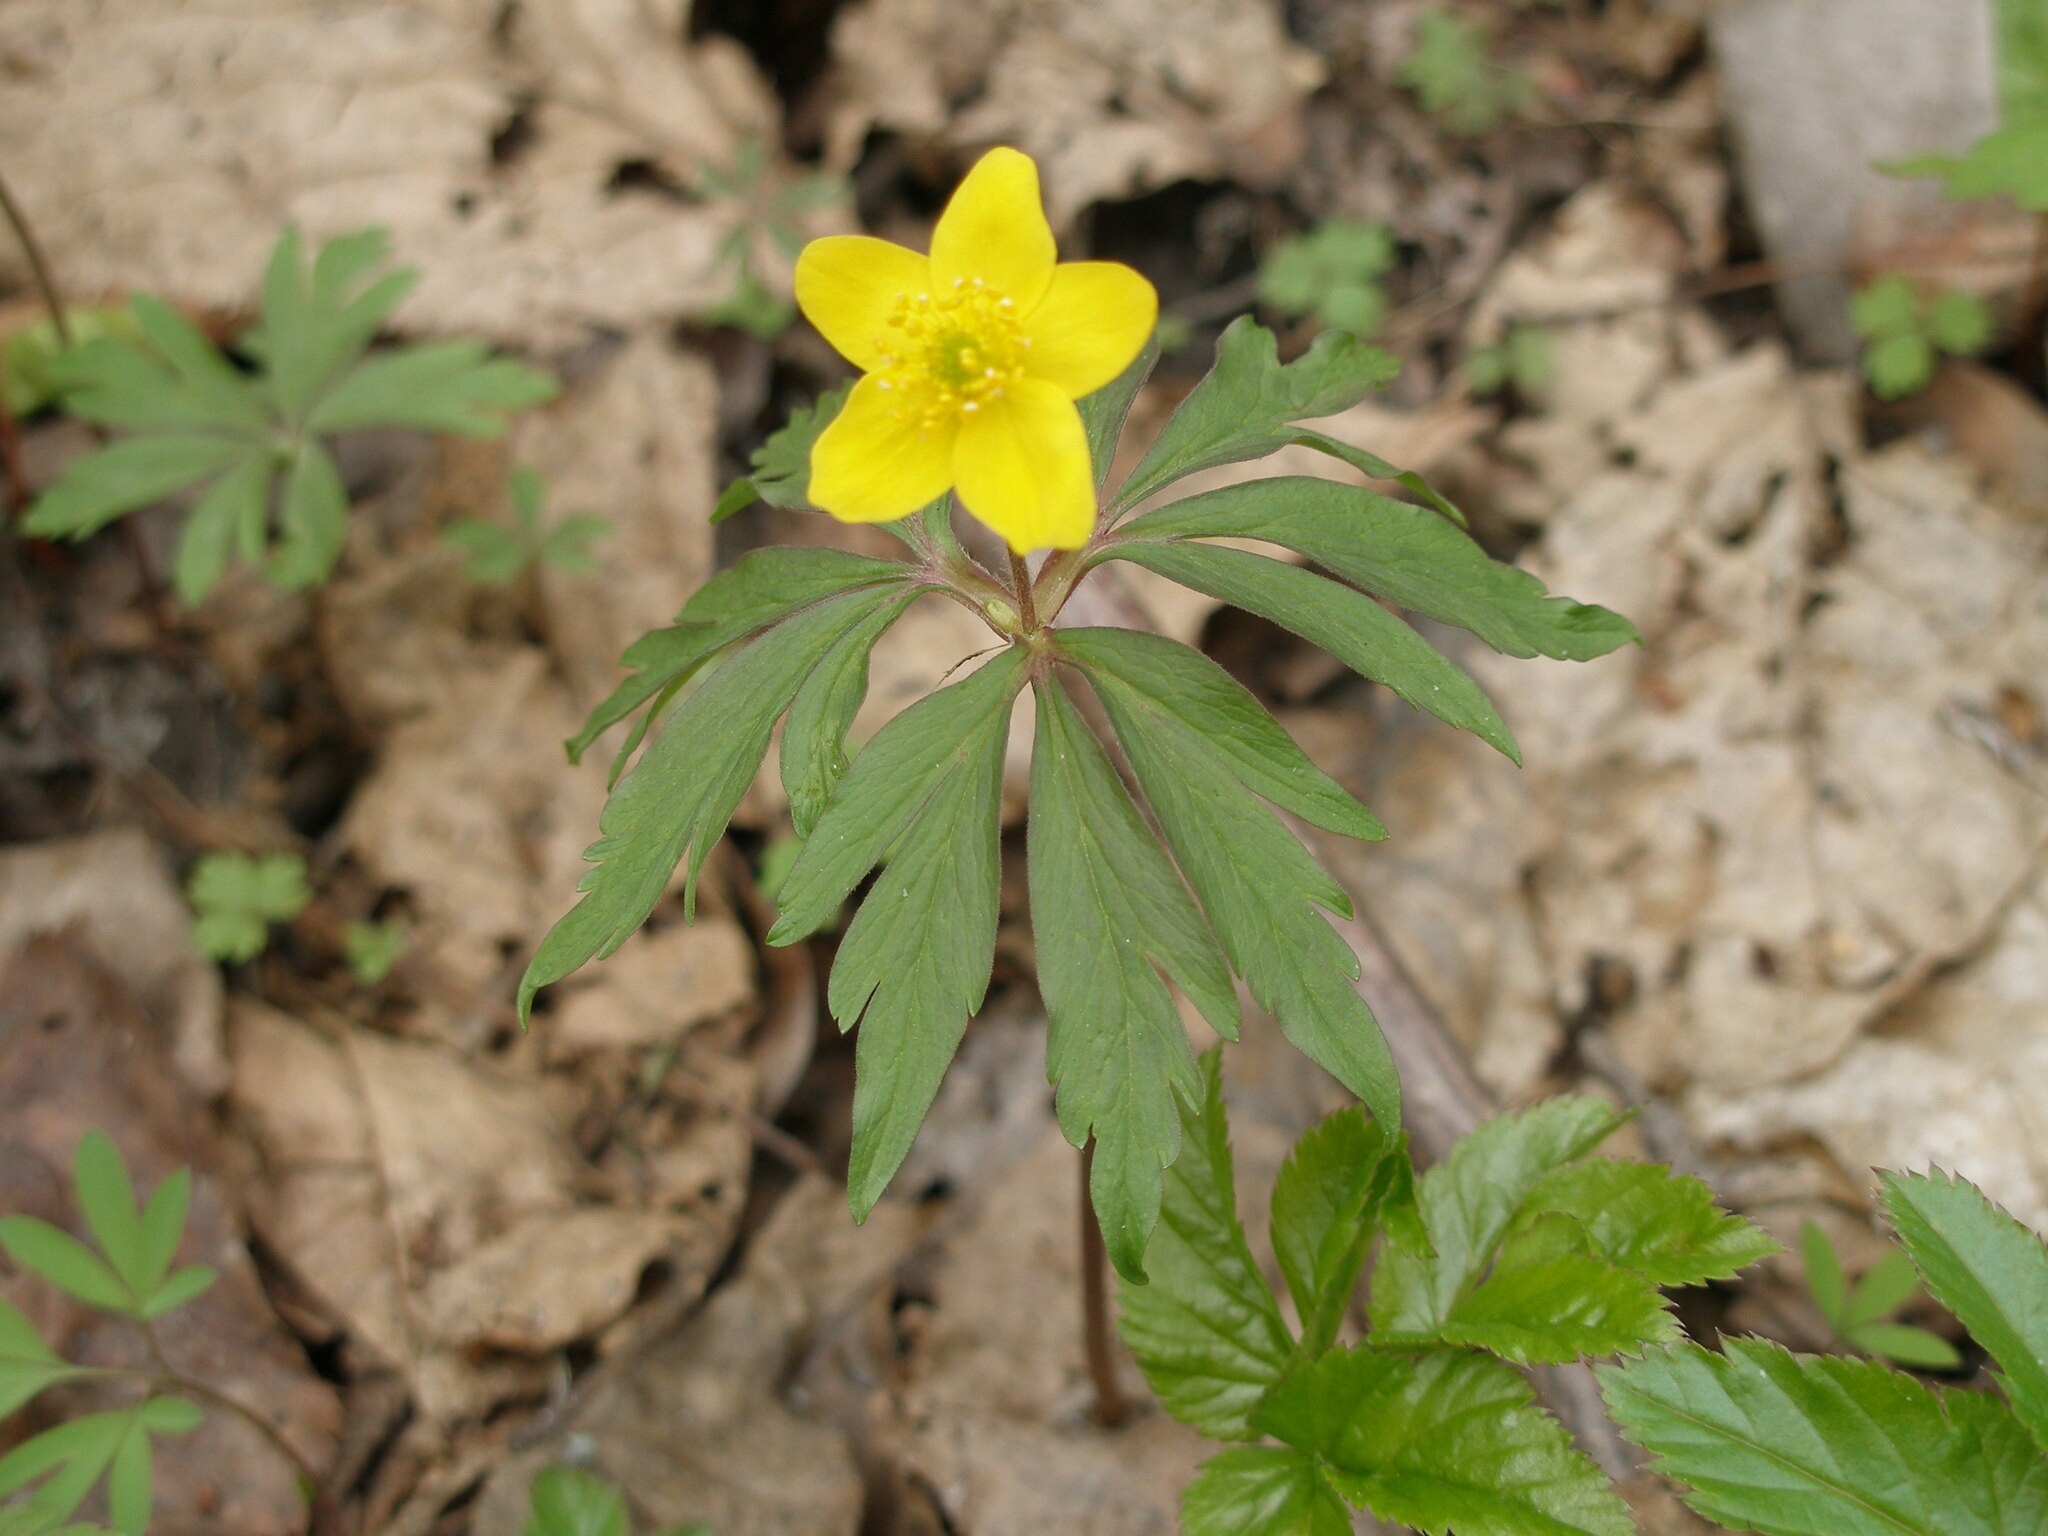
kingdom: Plantae
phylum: Tracheophyta
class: Magnoliopsida
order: Ranunculales
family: Ranunculaceae
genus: Anemone
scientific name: Anemone ranunculoides
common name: Yellow anemone
